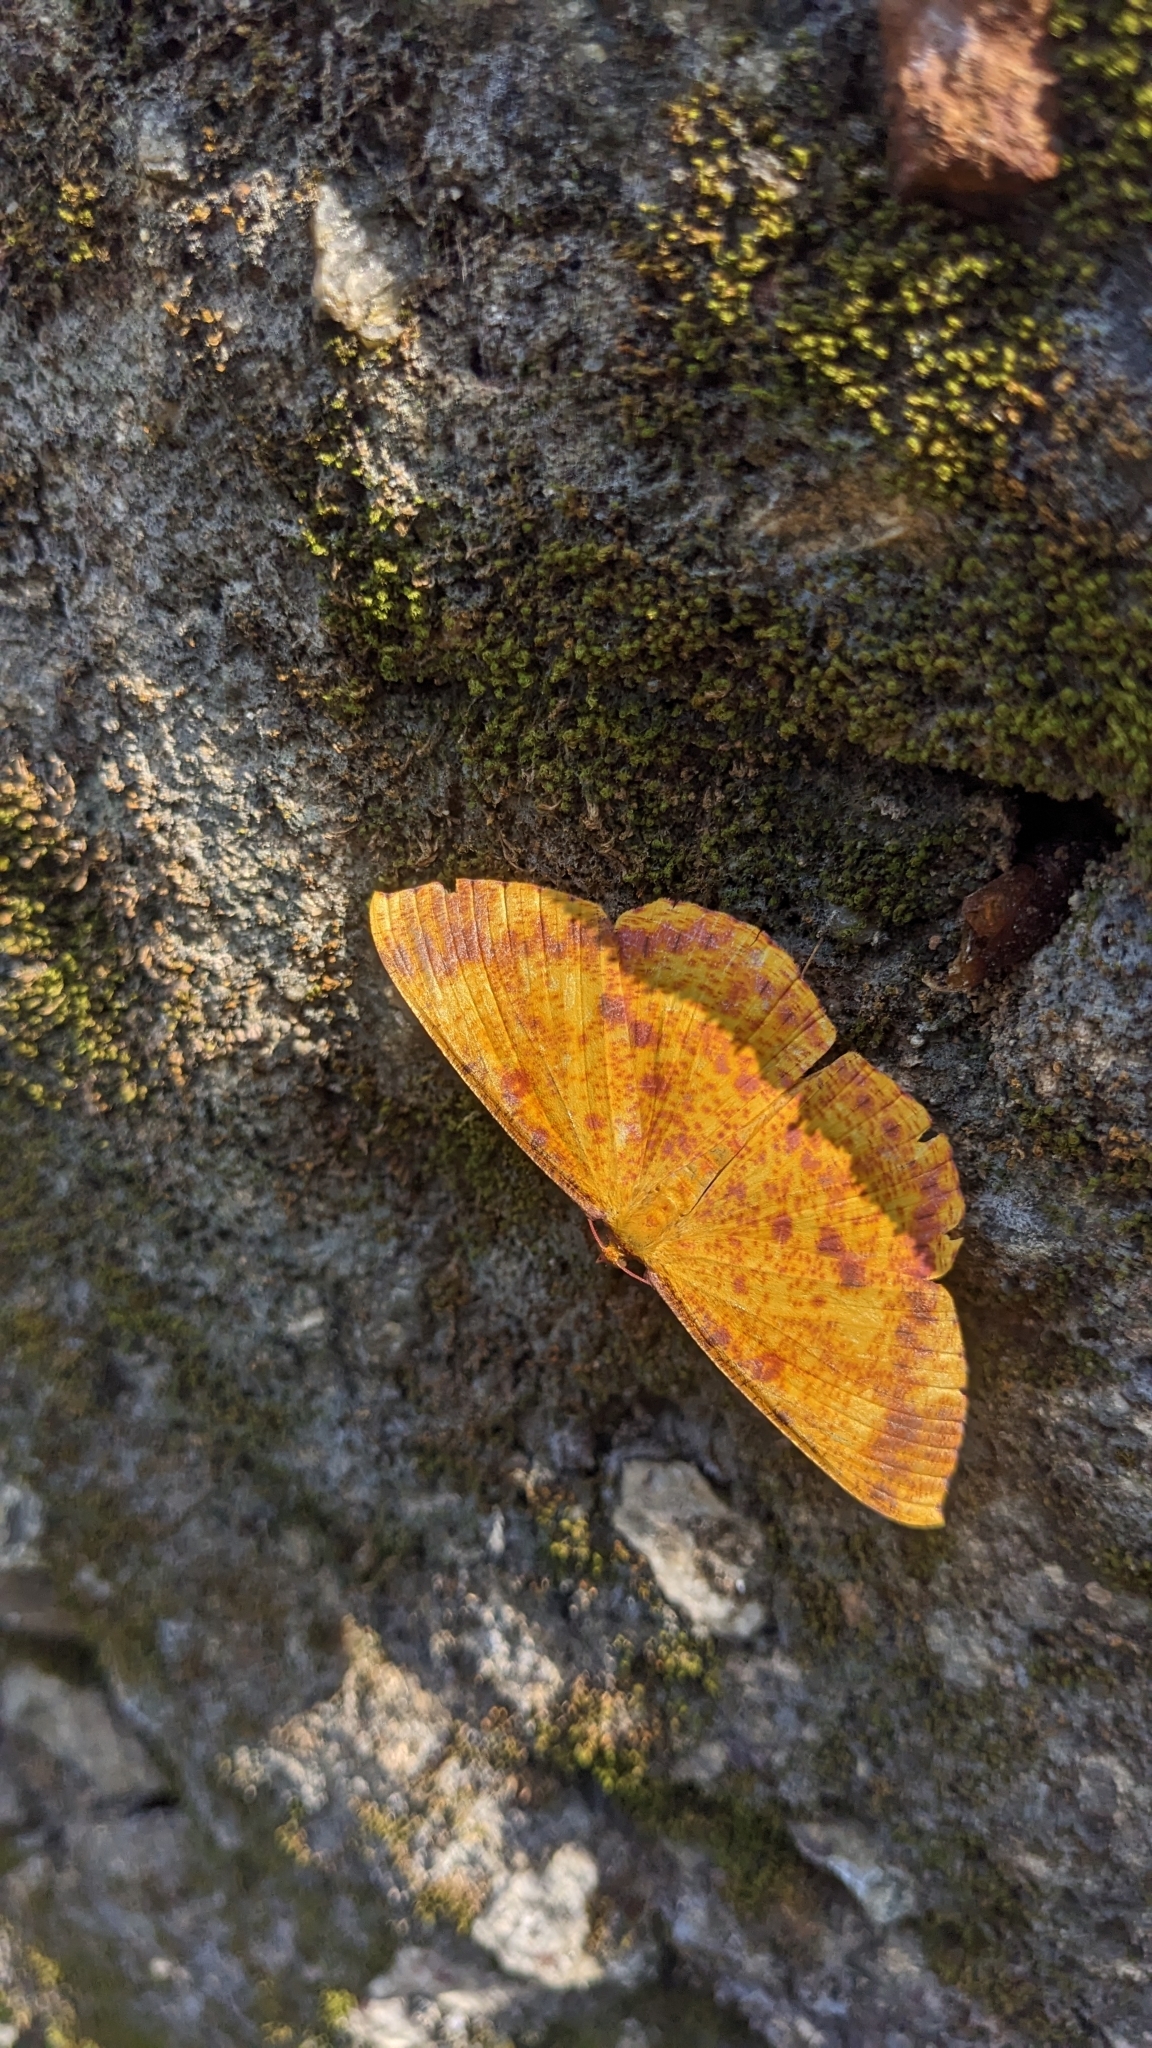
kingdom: Animalia
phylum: Arthropoda
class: Insecta
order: Lepidoptera
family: Geometridae
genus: Eumelea
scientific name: Eumelea ludovicata
